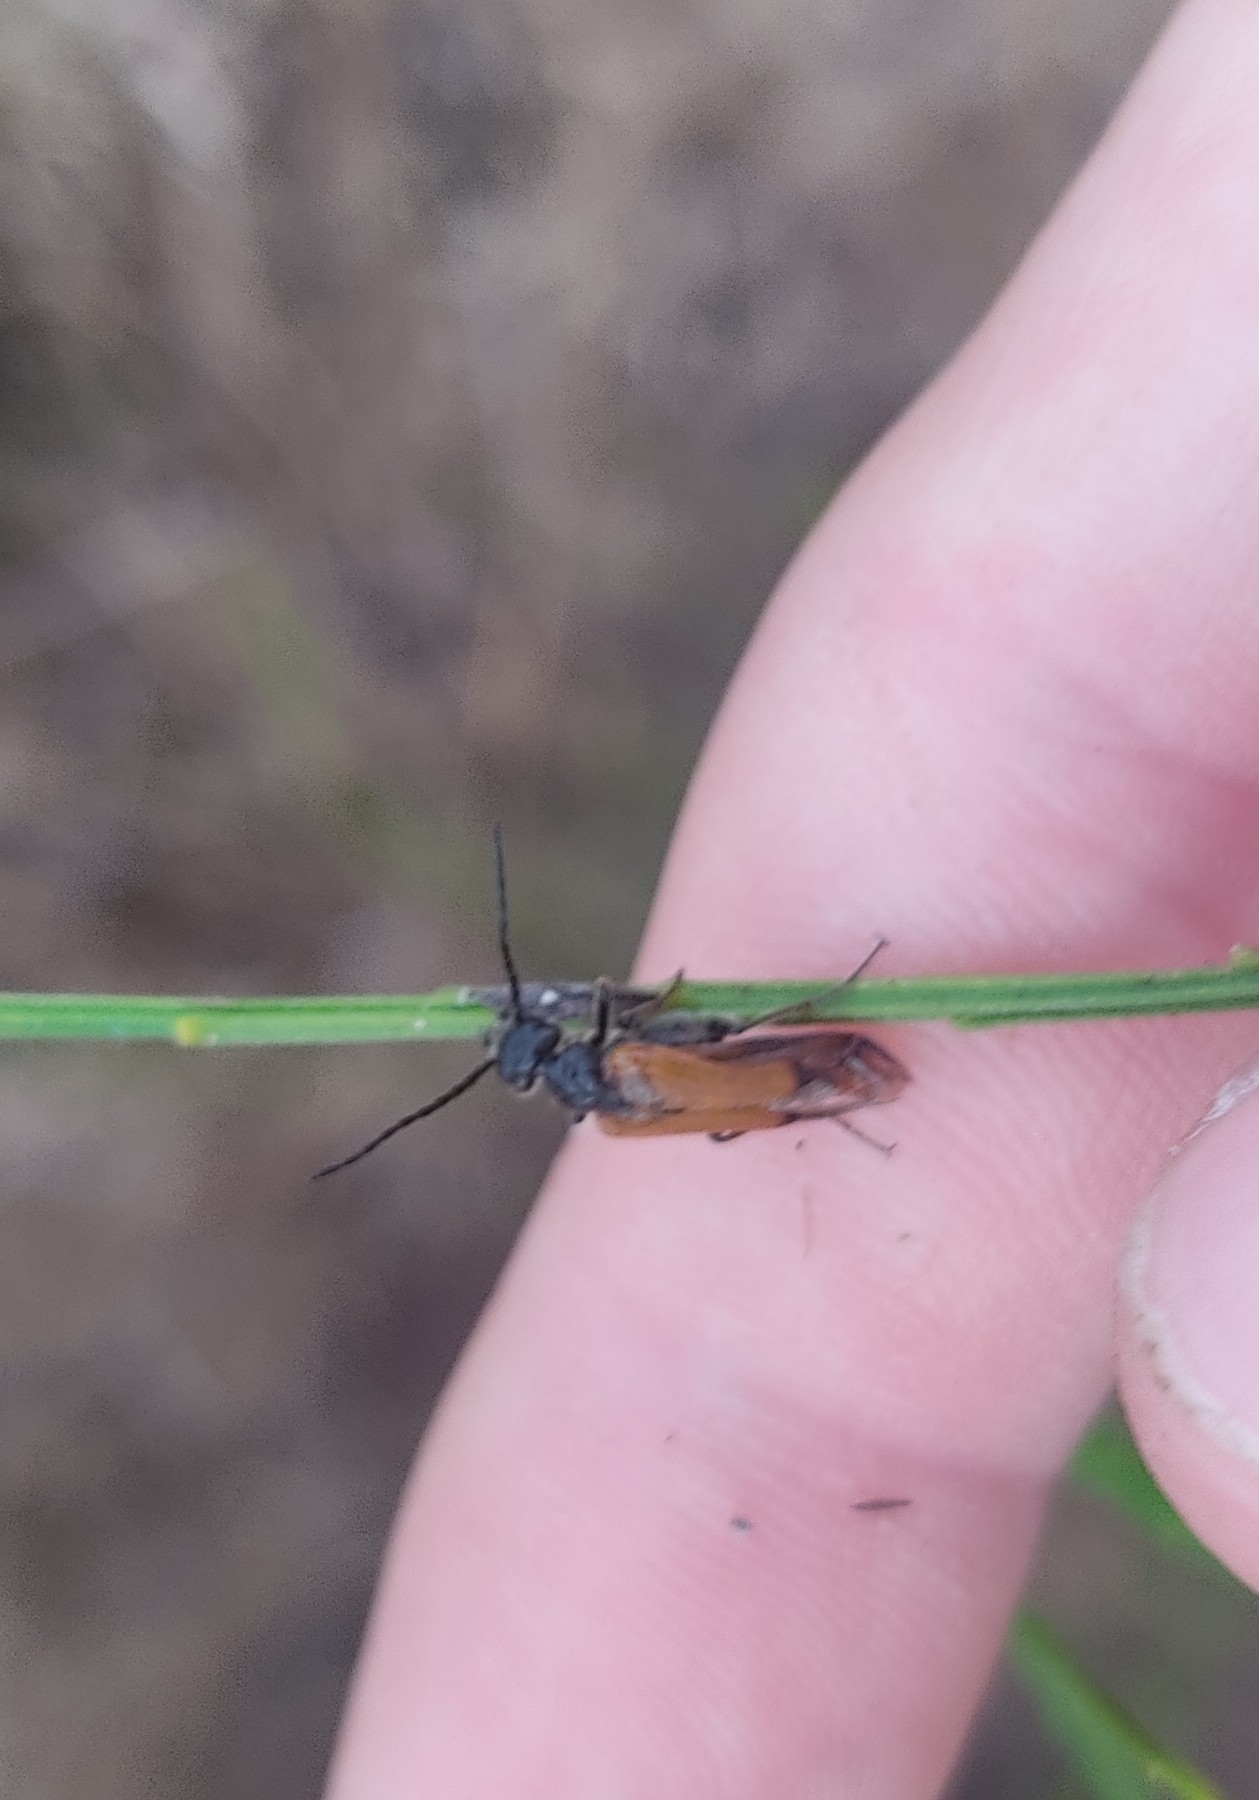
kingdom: Animalia
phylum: Arthropoda
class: Insecta
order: Coleoptera
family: Meloidae
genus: Stenoria
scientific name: Stenoria analis
